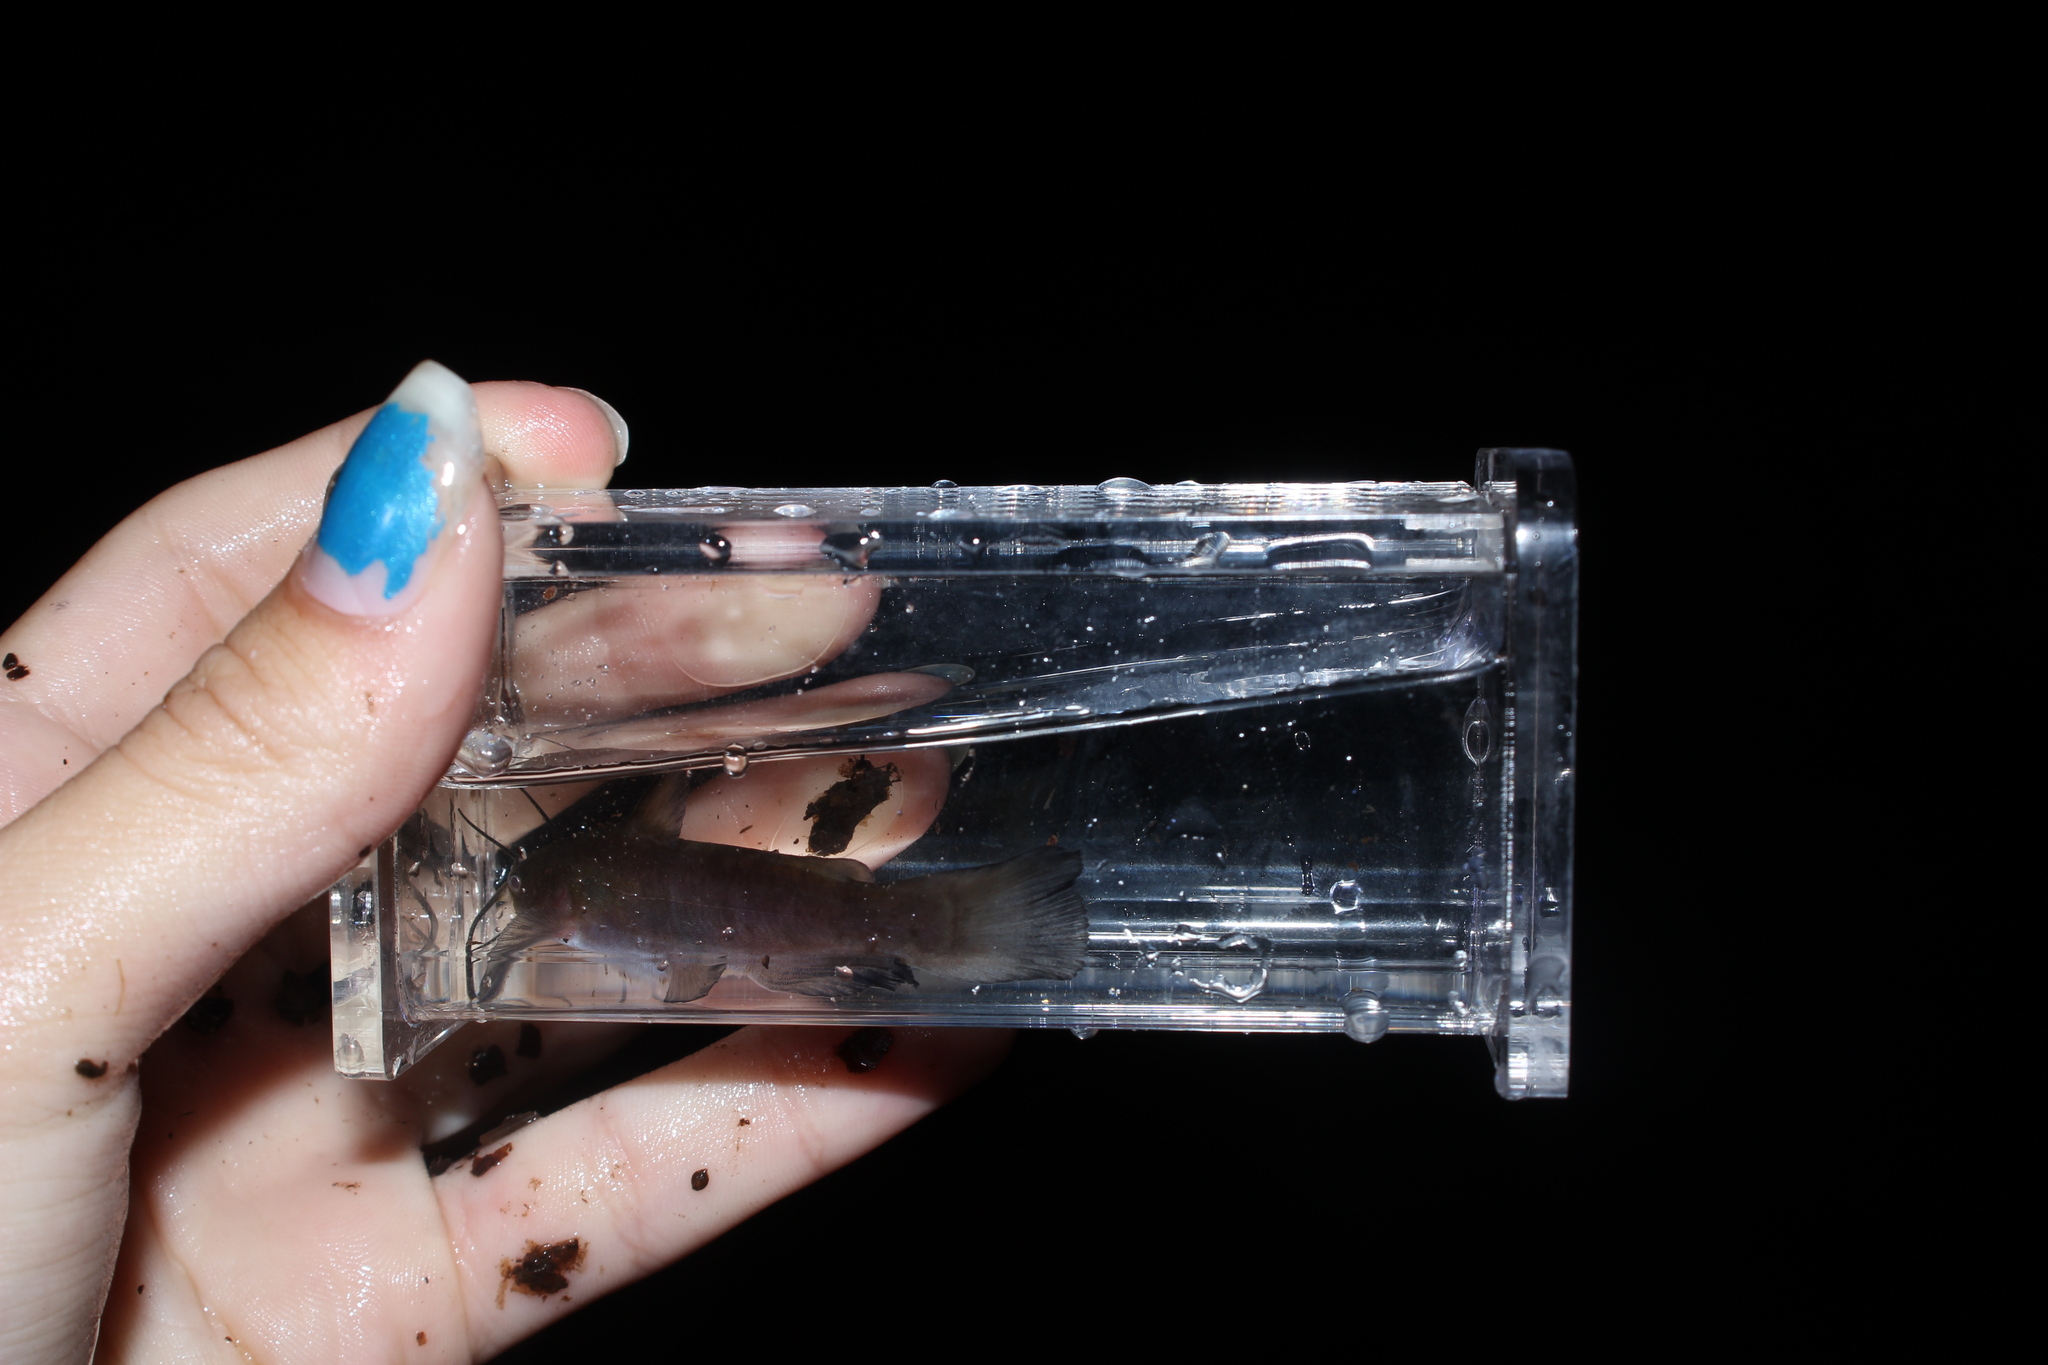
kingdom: Animalia
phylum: Chordata
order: Siluriformes
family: Ictaluridae
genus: Ameiurus
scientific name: Ameiurus nebulosus
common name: Brown bullhead
